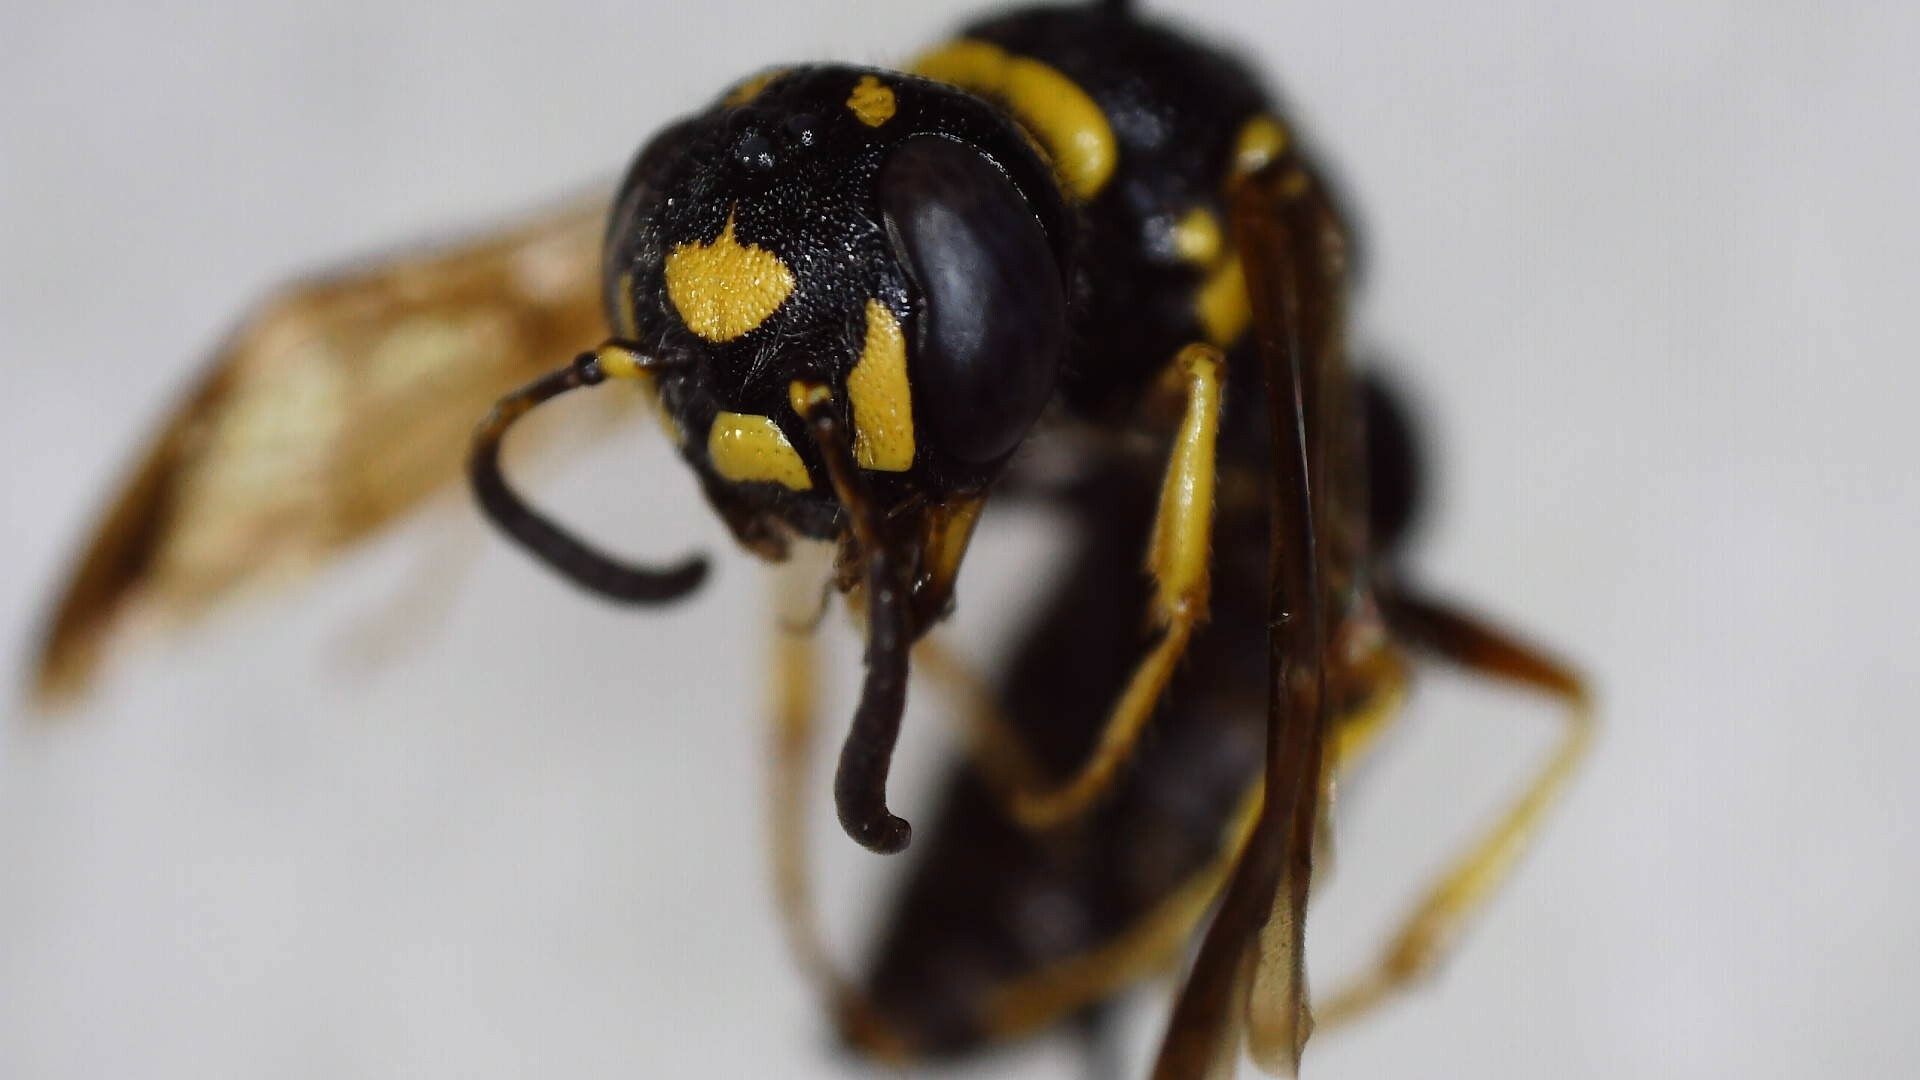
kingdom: Animalia
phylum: Arthropoda
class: Insecta
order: Hymenoptera
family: Crabronidae
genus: Philanthus
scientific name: Philanthus gibbosus
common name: Humped beewolf
